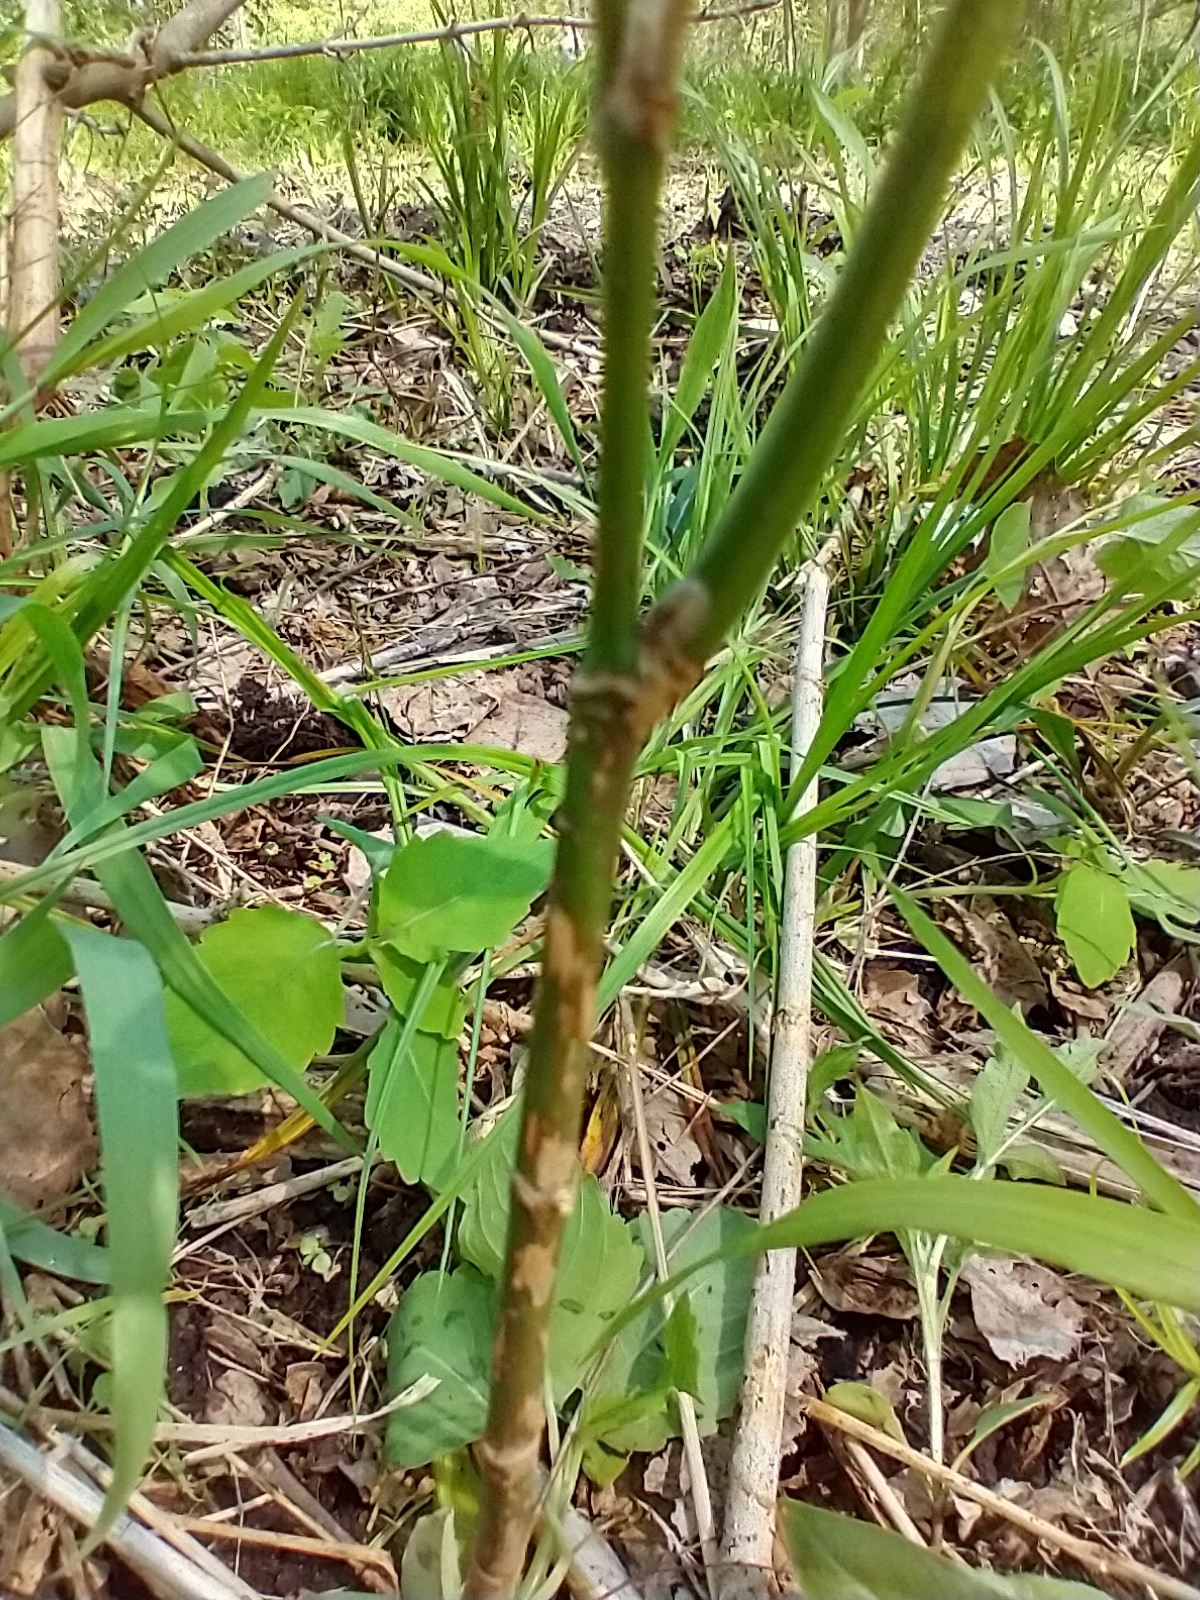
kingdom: Plantae
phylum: Tracheophyta
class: Magnoliopsida
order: Sapindales
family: Sapindaceae
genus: Acer
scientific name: Acer negundo
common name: Ashleaf maple
